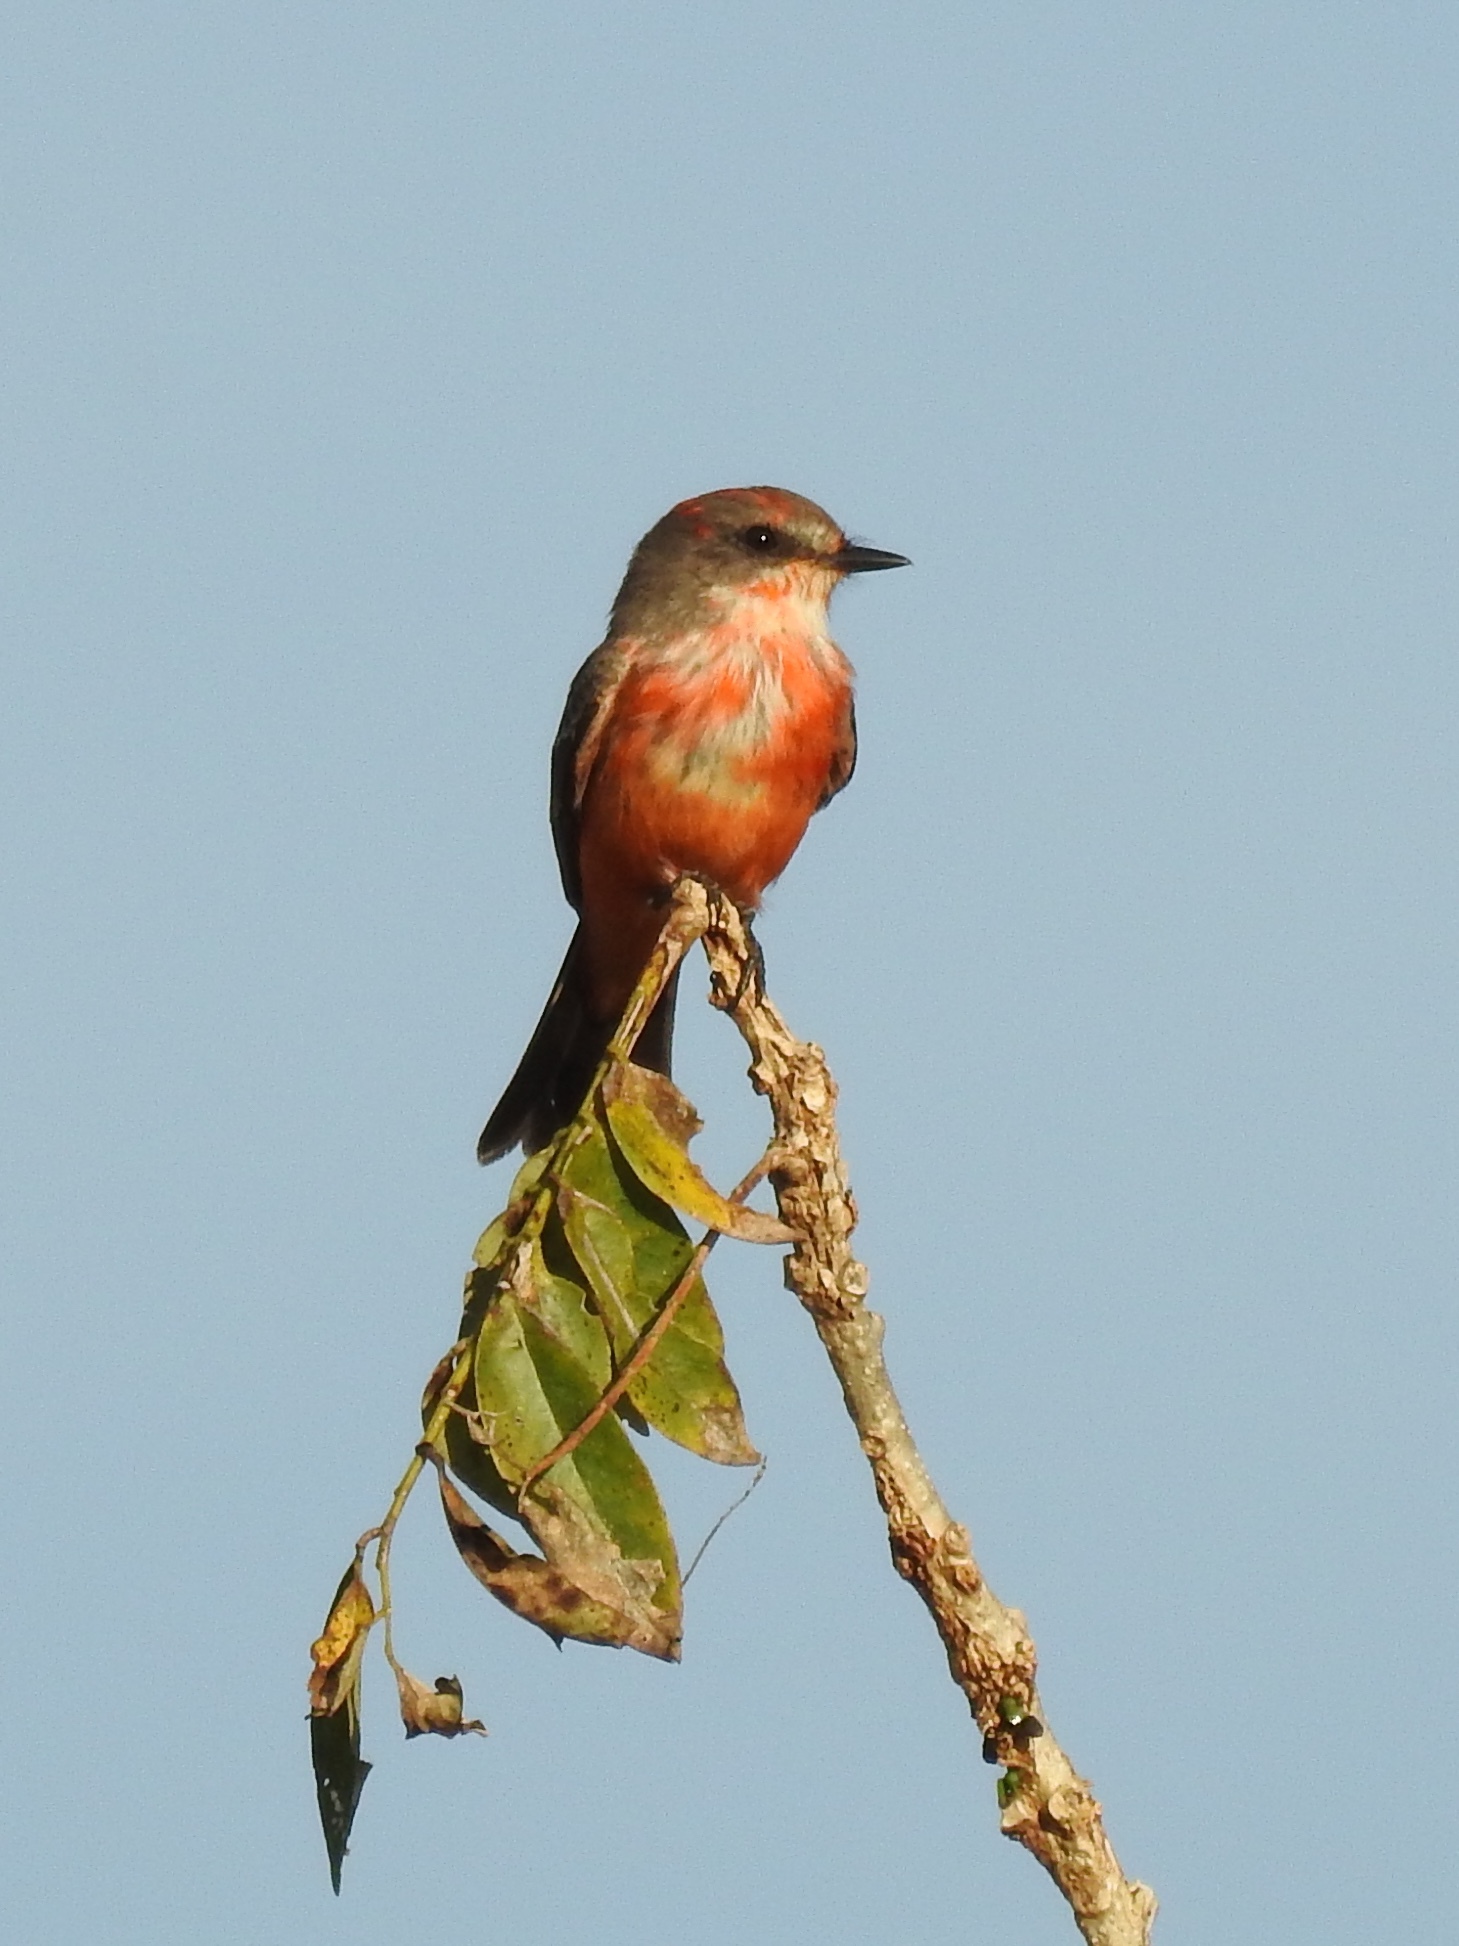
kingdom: Animalia
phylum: Chordata
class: Aves
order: Passeriformes
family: Tyrannidae
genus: Pyrocephalus
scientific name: Pyrocephalus rubinus
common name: Vermilion flycatcher
